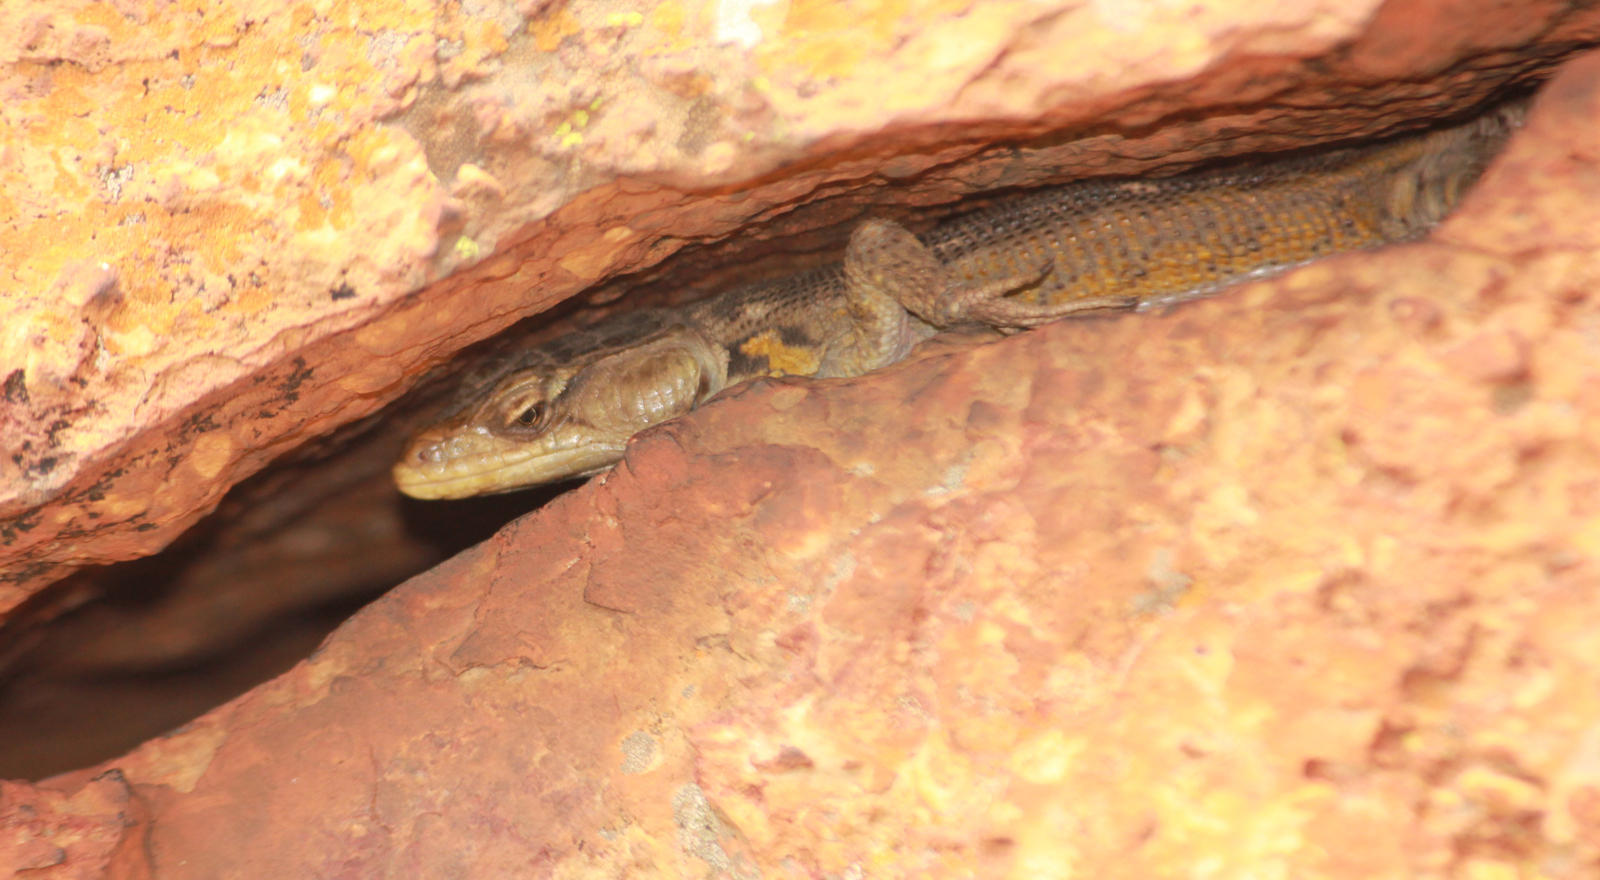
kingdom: Animalia
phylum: Chordata
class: Squamata
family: Cordylidae
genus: Pseudocordylus
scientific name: Pseudocordylus melanotus
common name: Highveld crag lizard
